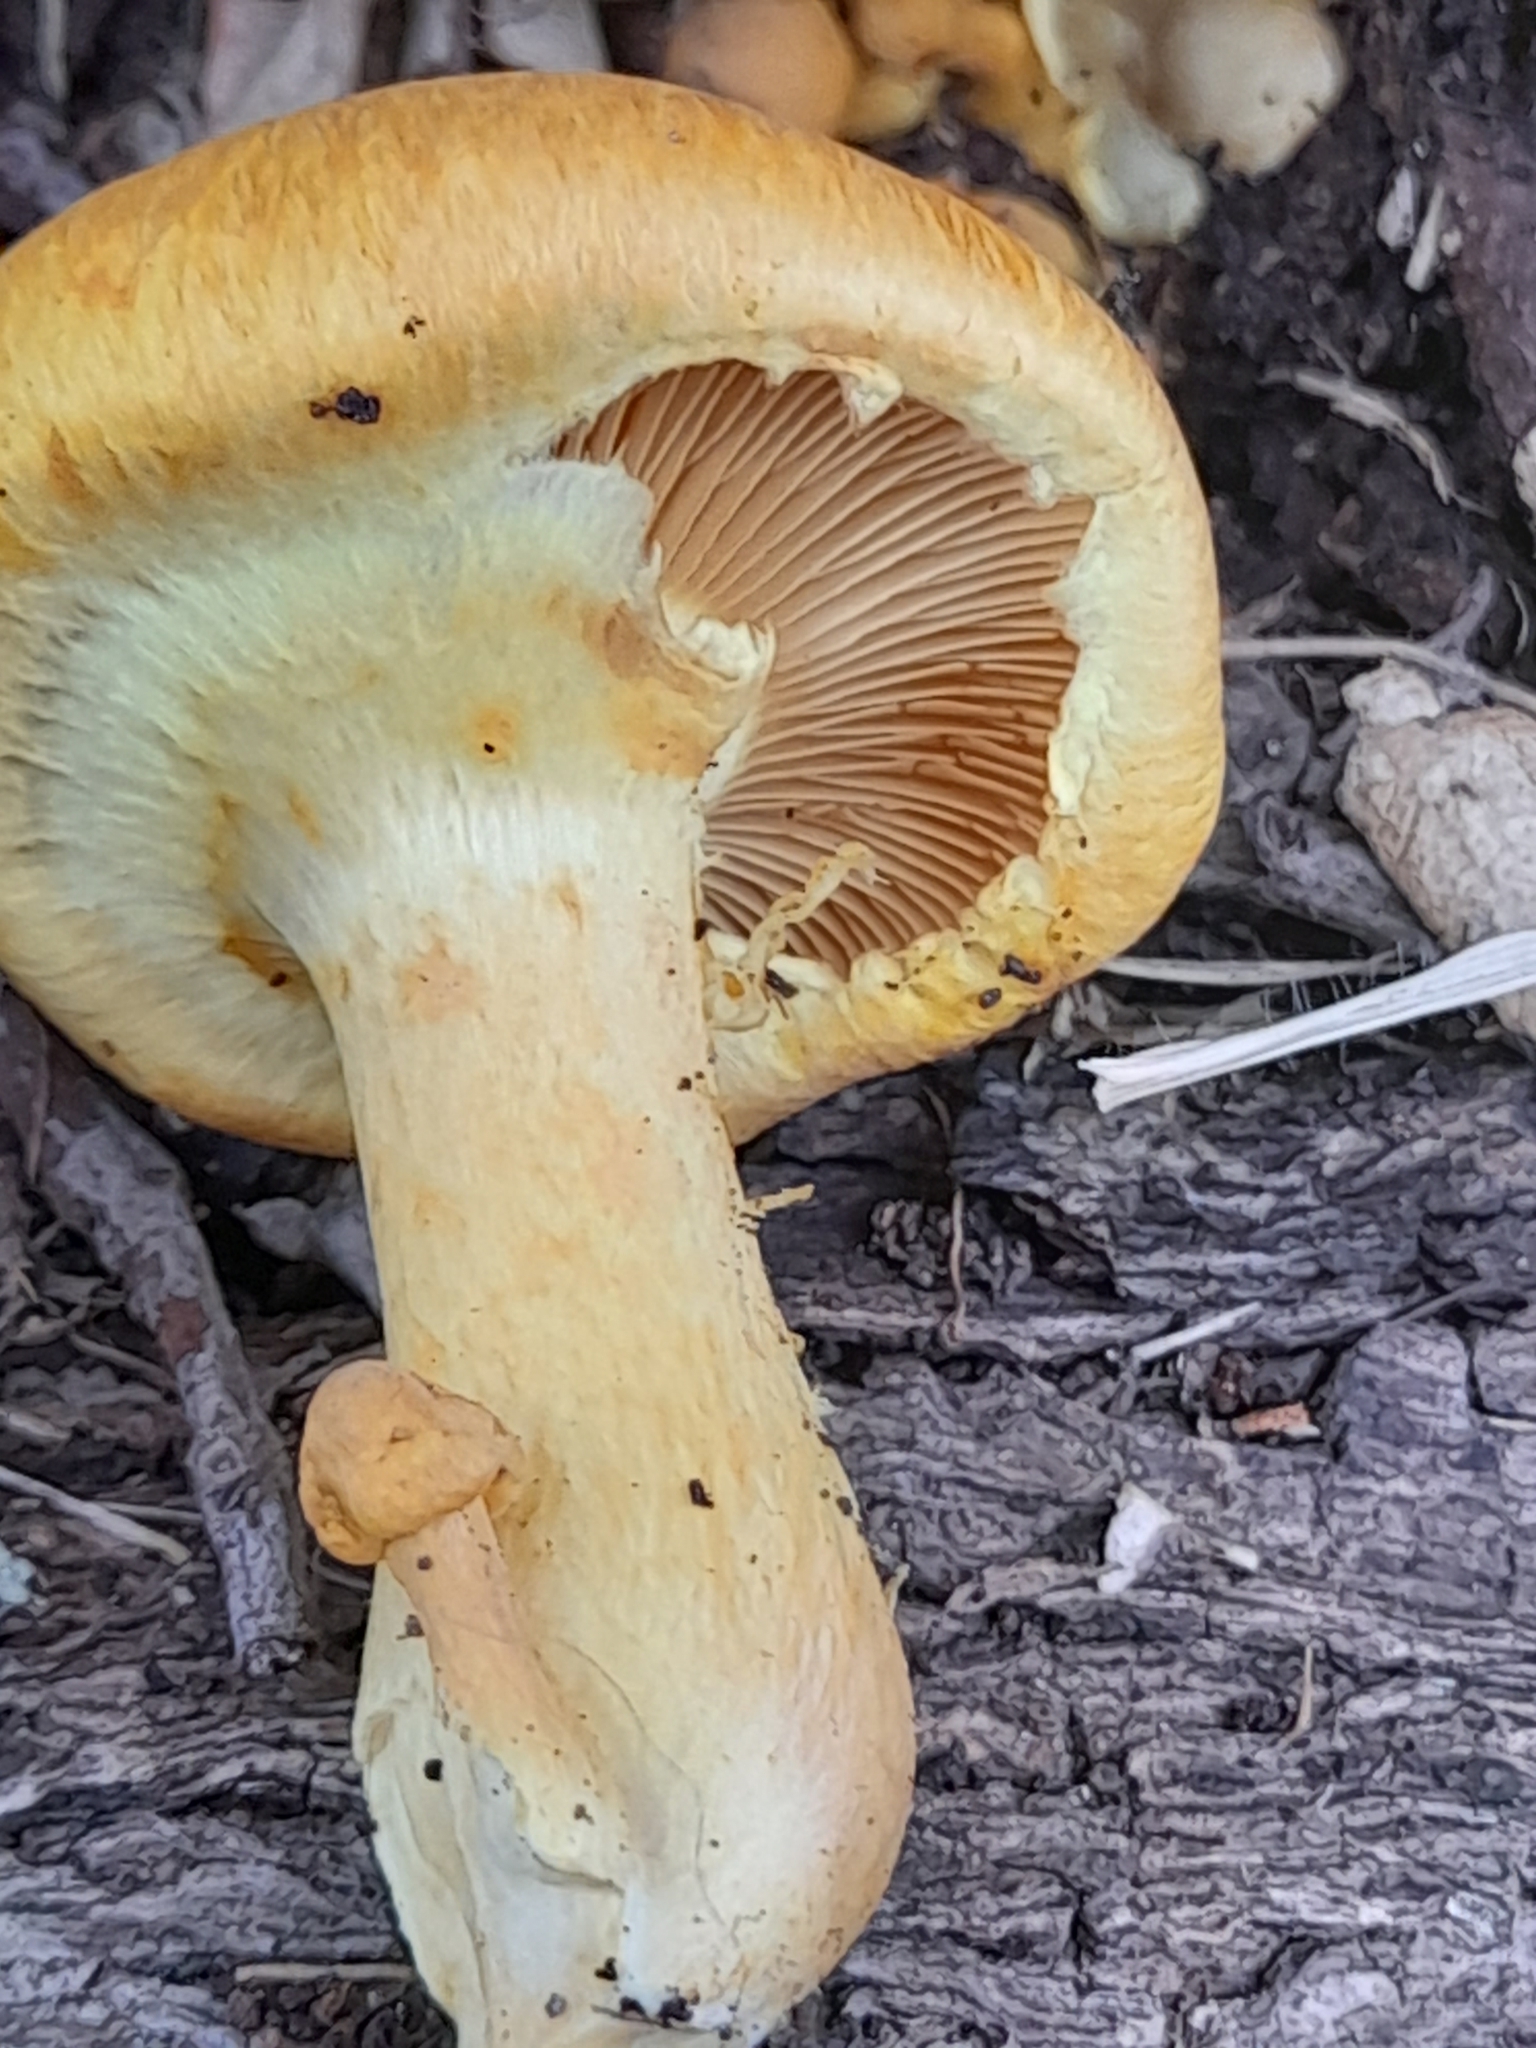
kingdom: Fungi
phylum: Basidiomycota
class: Agaricomycetes
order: Agaricales
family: Hymenogastraceae
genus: Gymnopilus
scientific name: Gymnopilus junonius
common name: Spectacular rustgill
